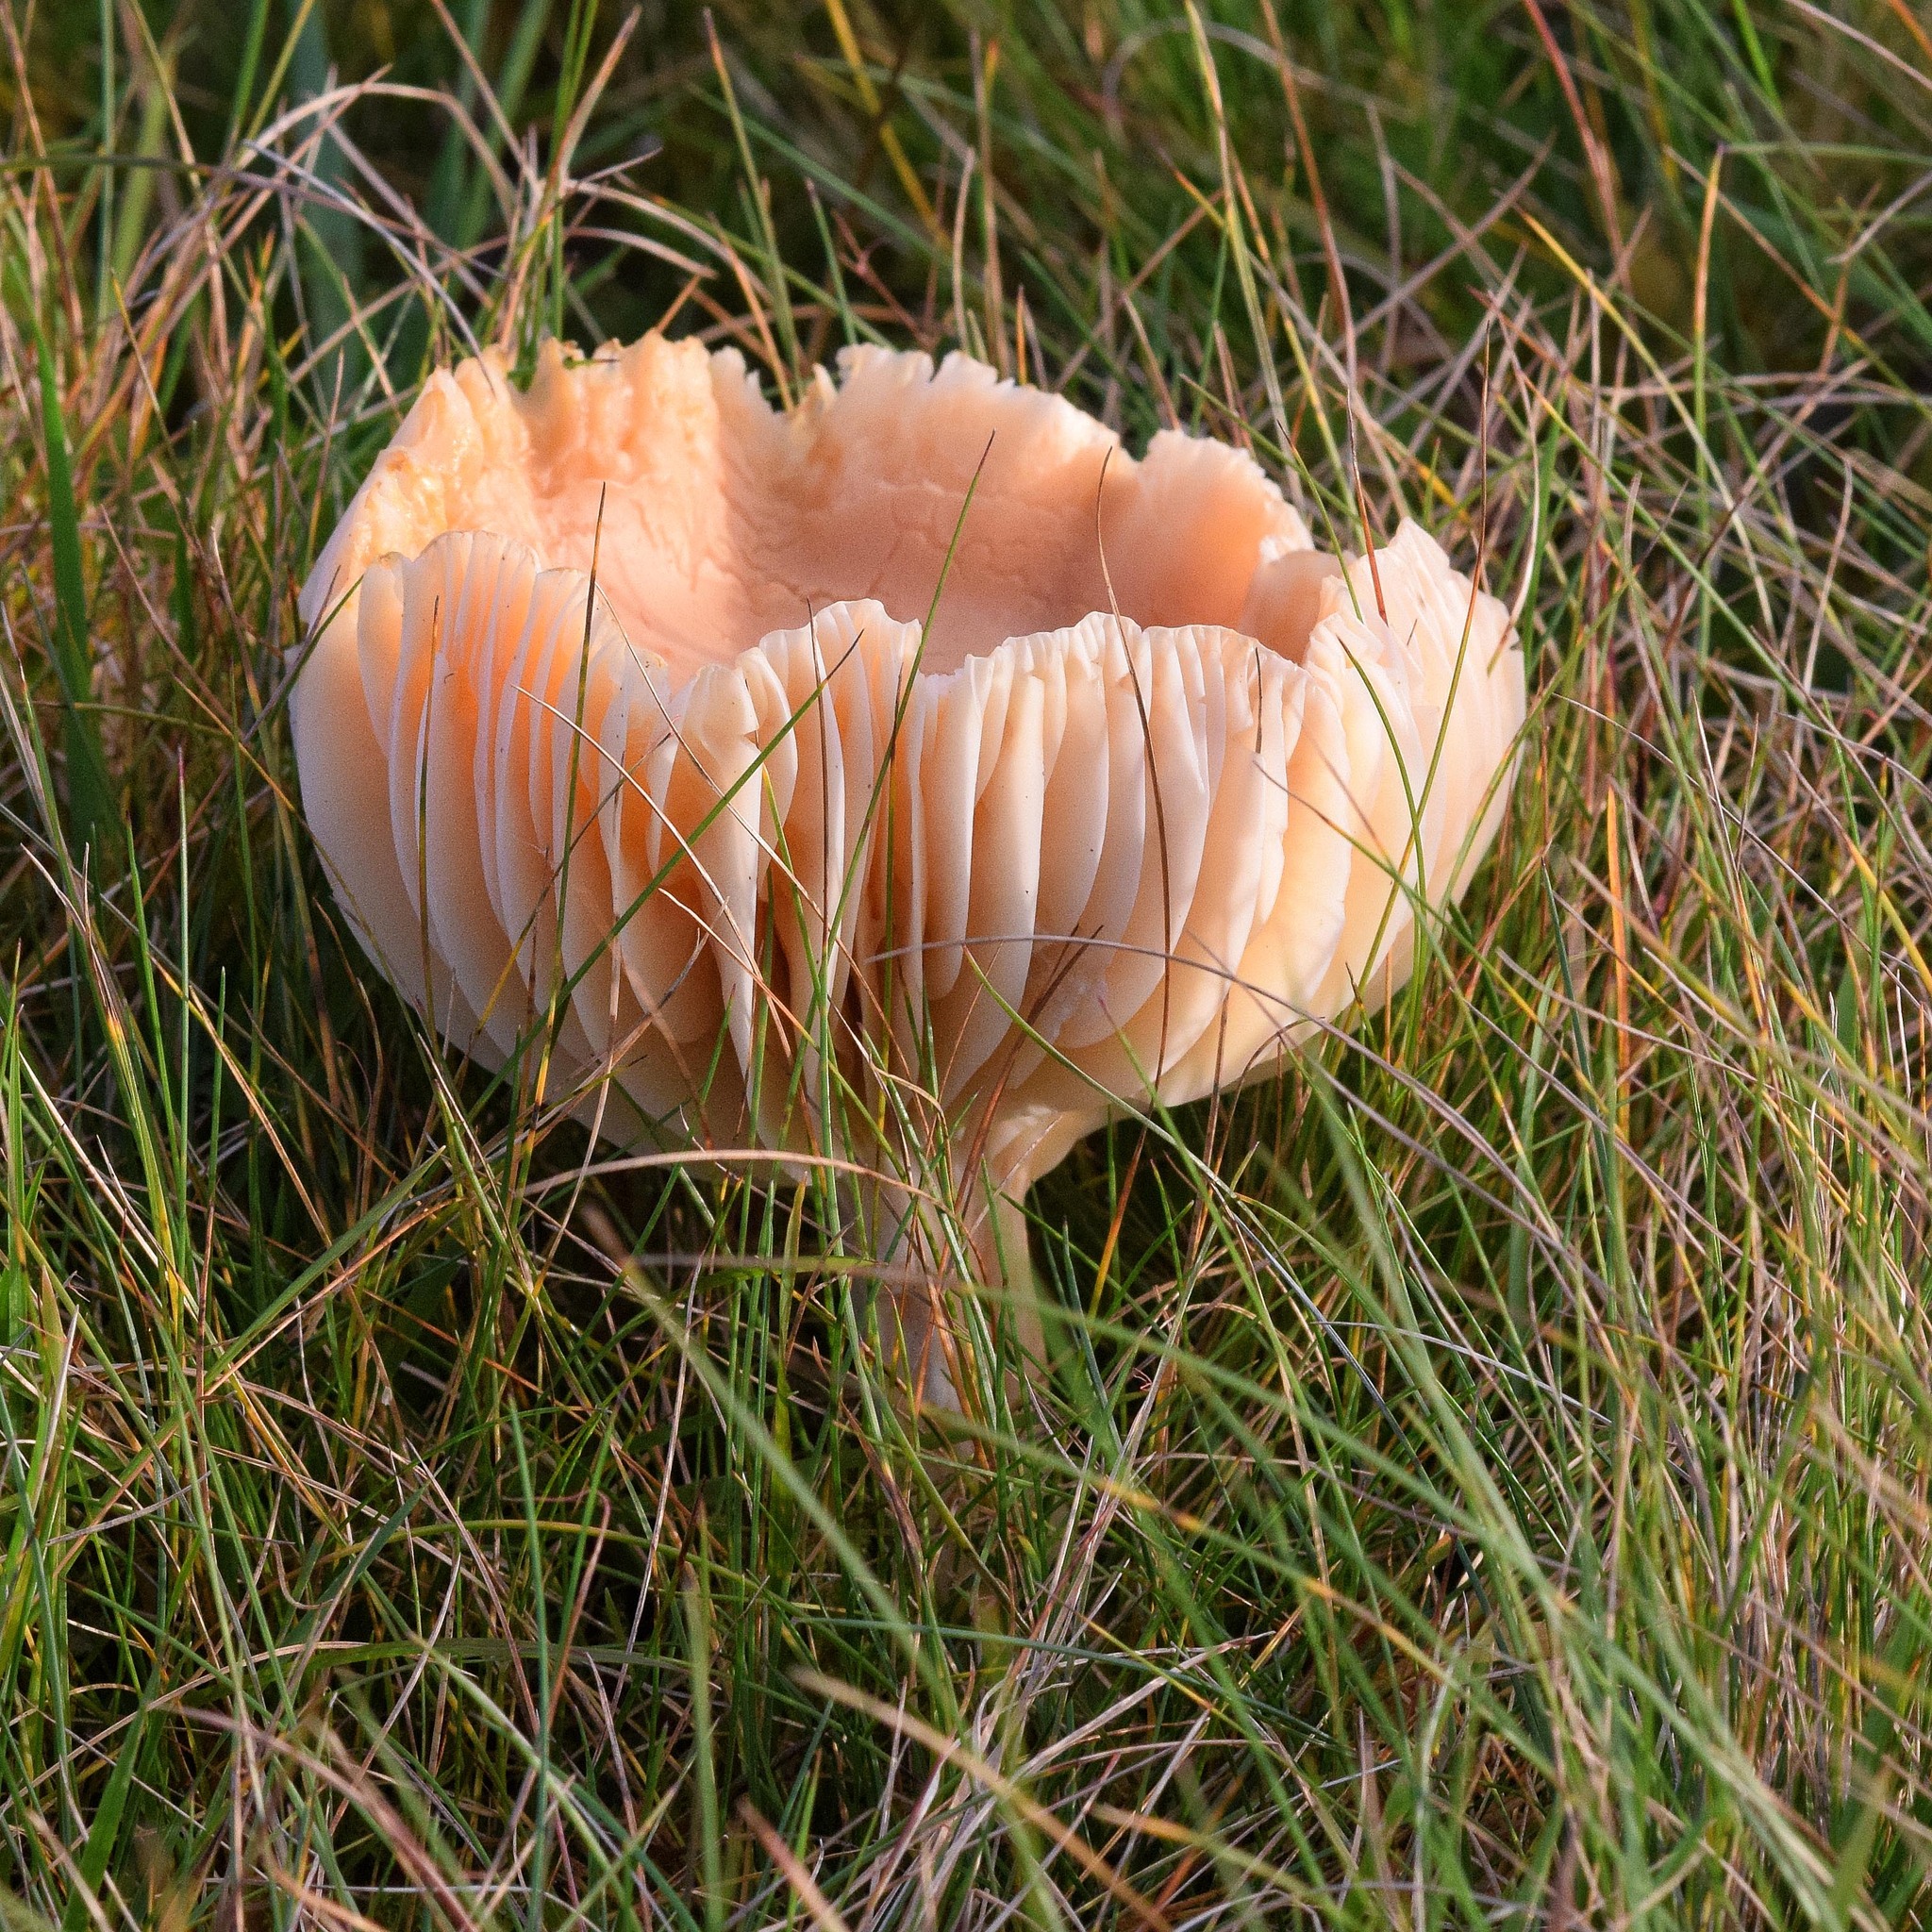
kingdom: Fungi
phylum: Basidiomycota
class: Agaricomycetes
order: Agaricales
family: Hygrophoraceae
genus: Cuphophyllus
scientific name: Cuphophyllus pratensis
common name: Meadow waxcap
